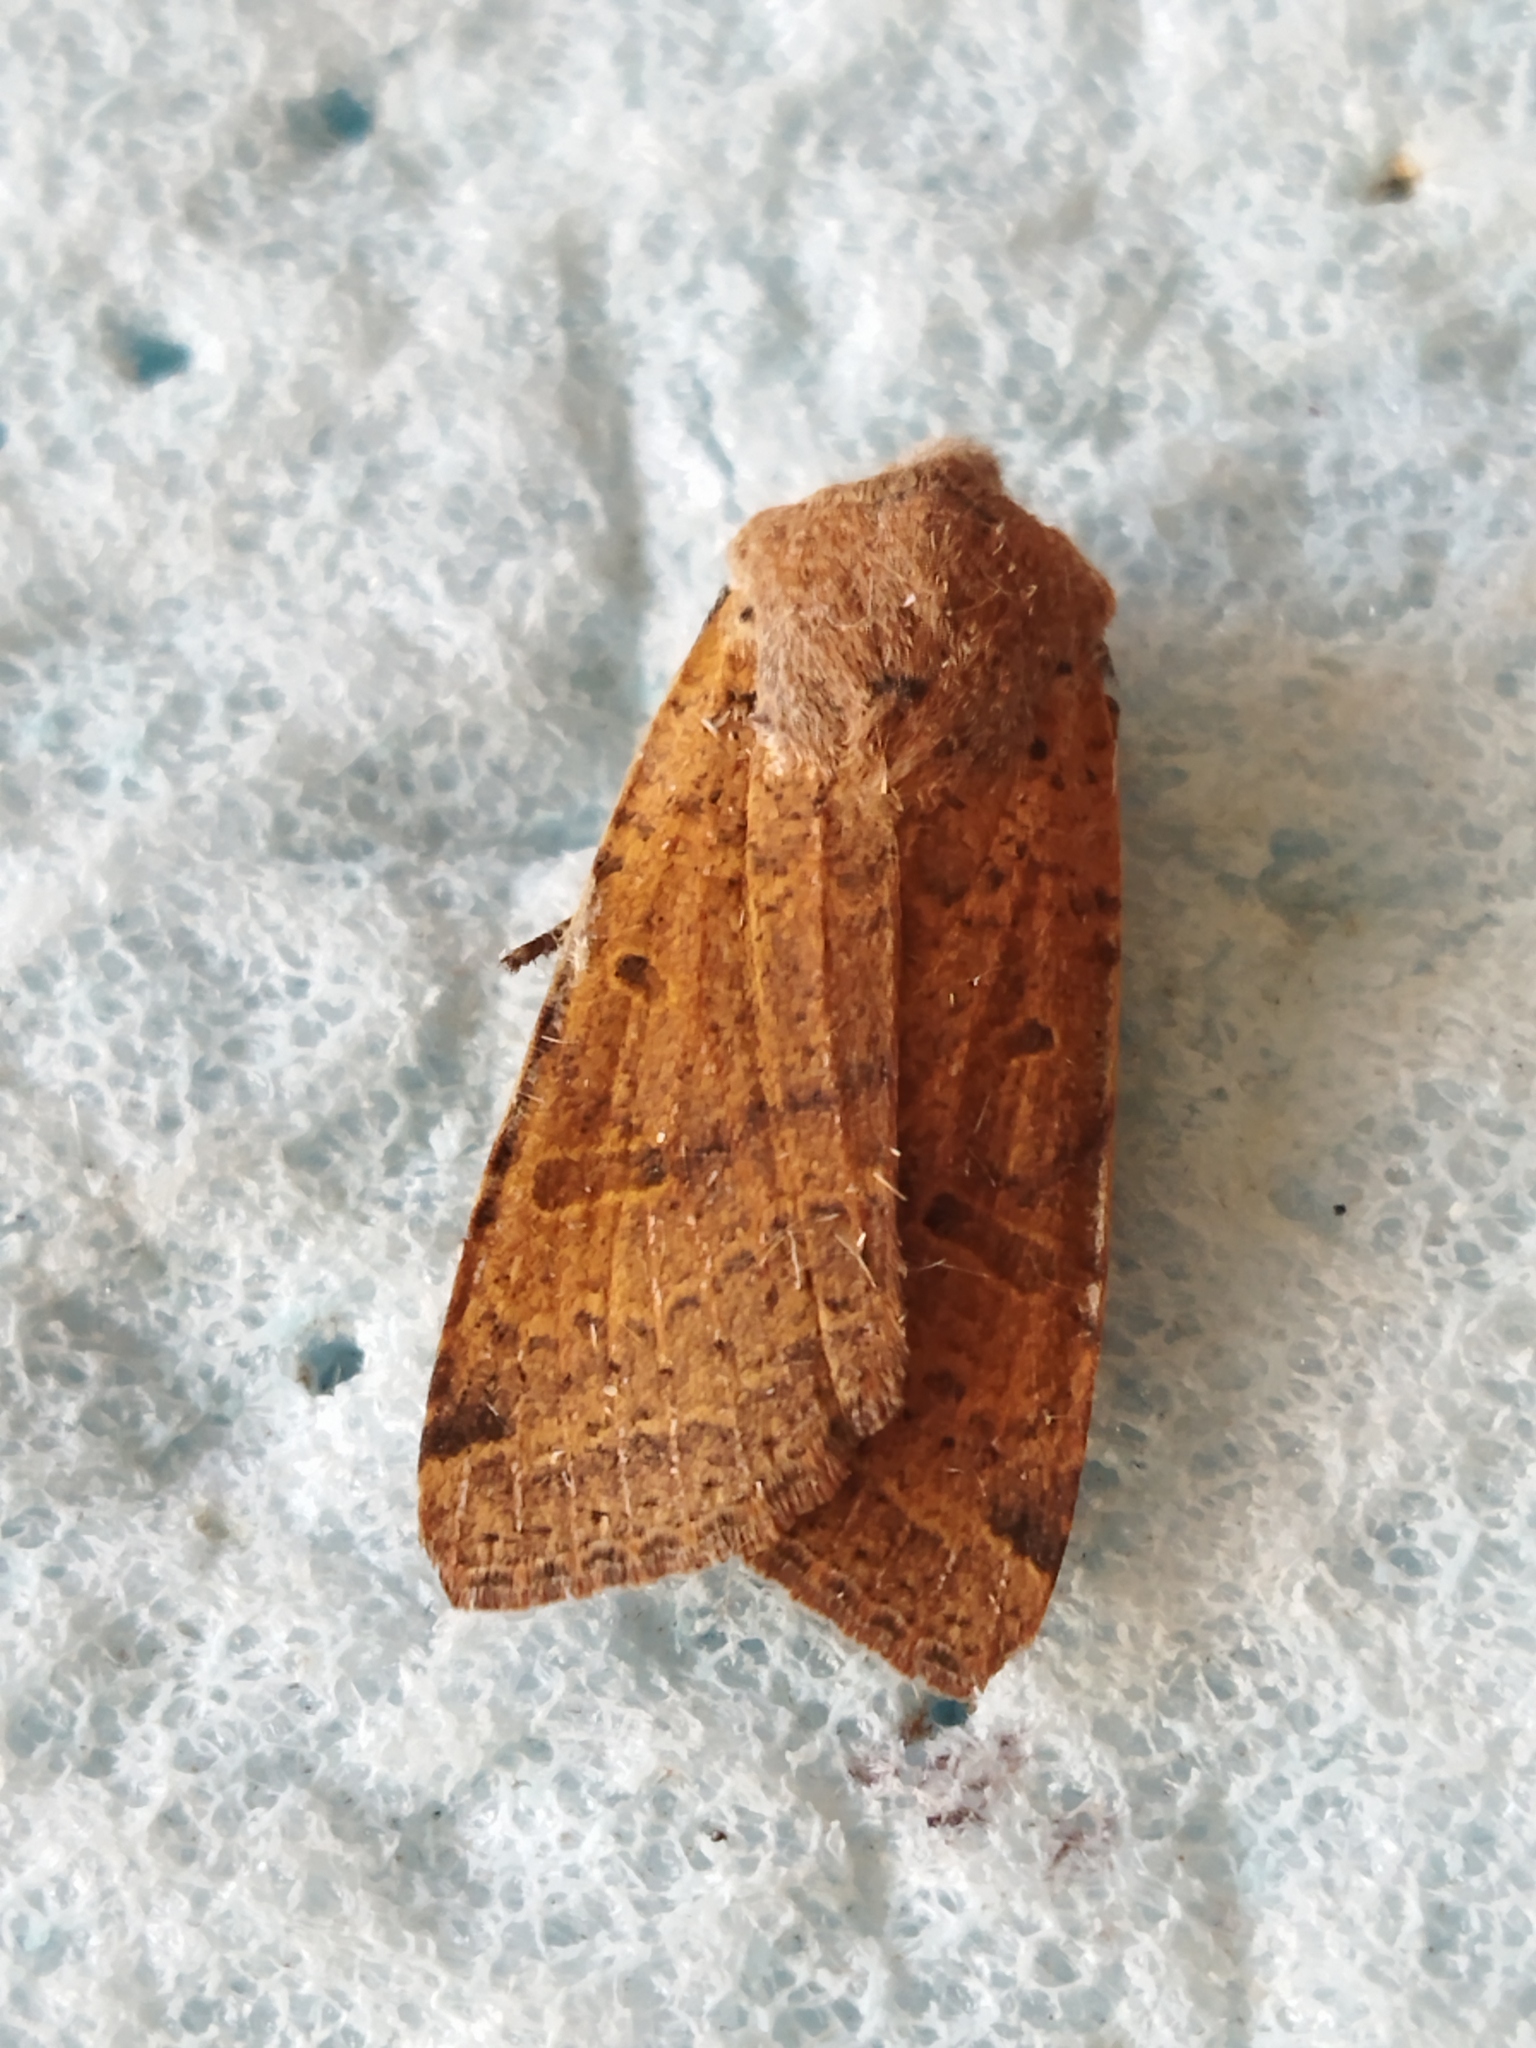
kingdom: Animalia
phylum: Arthropoda
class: Insecta
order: Lepidoptera
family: Noctuidae
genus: Agrochola
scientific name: Agrochola lychnidis
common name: Beaded chestnut
